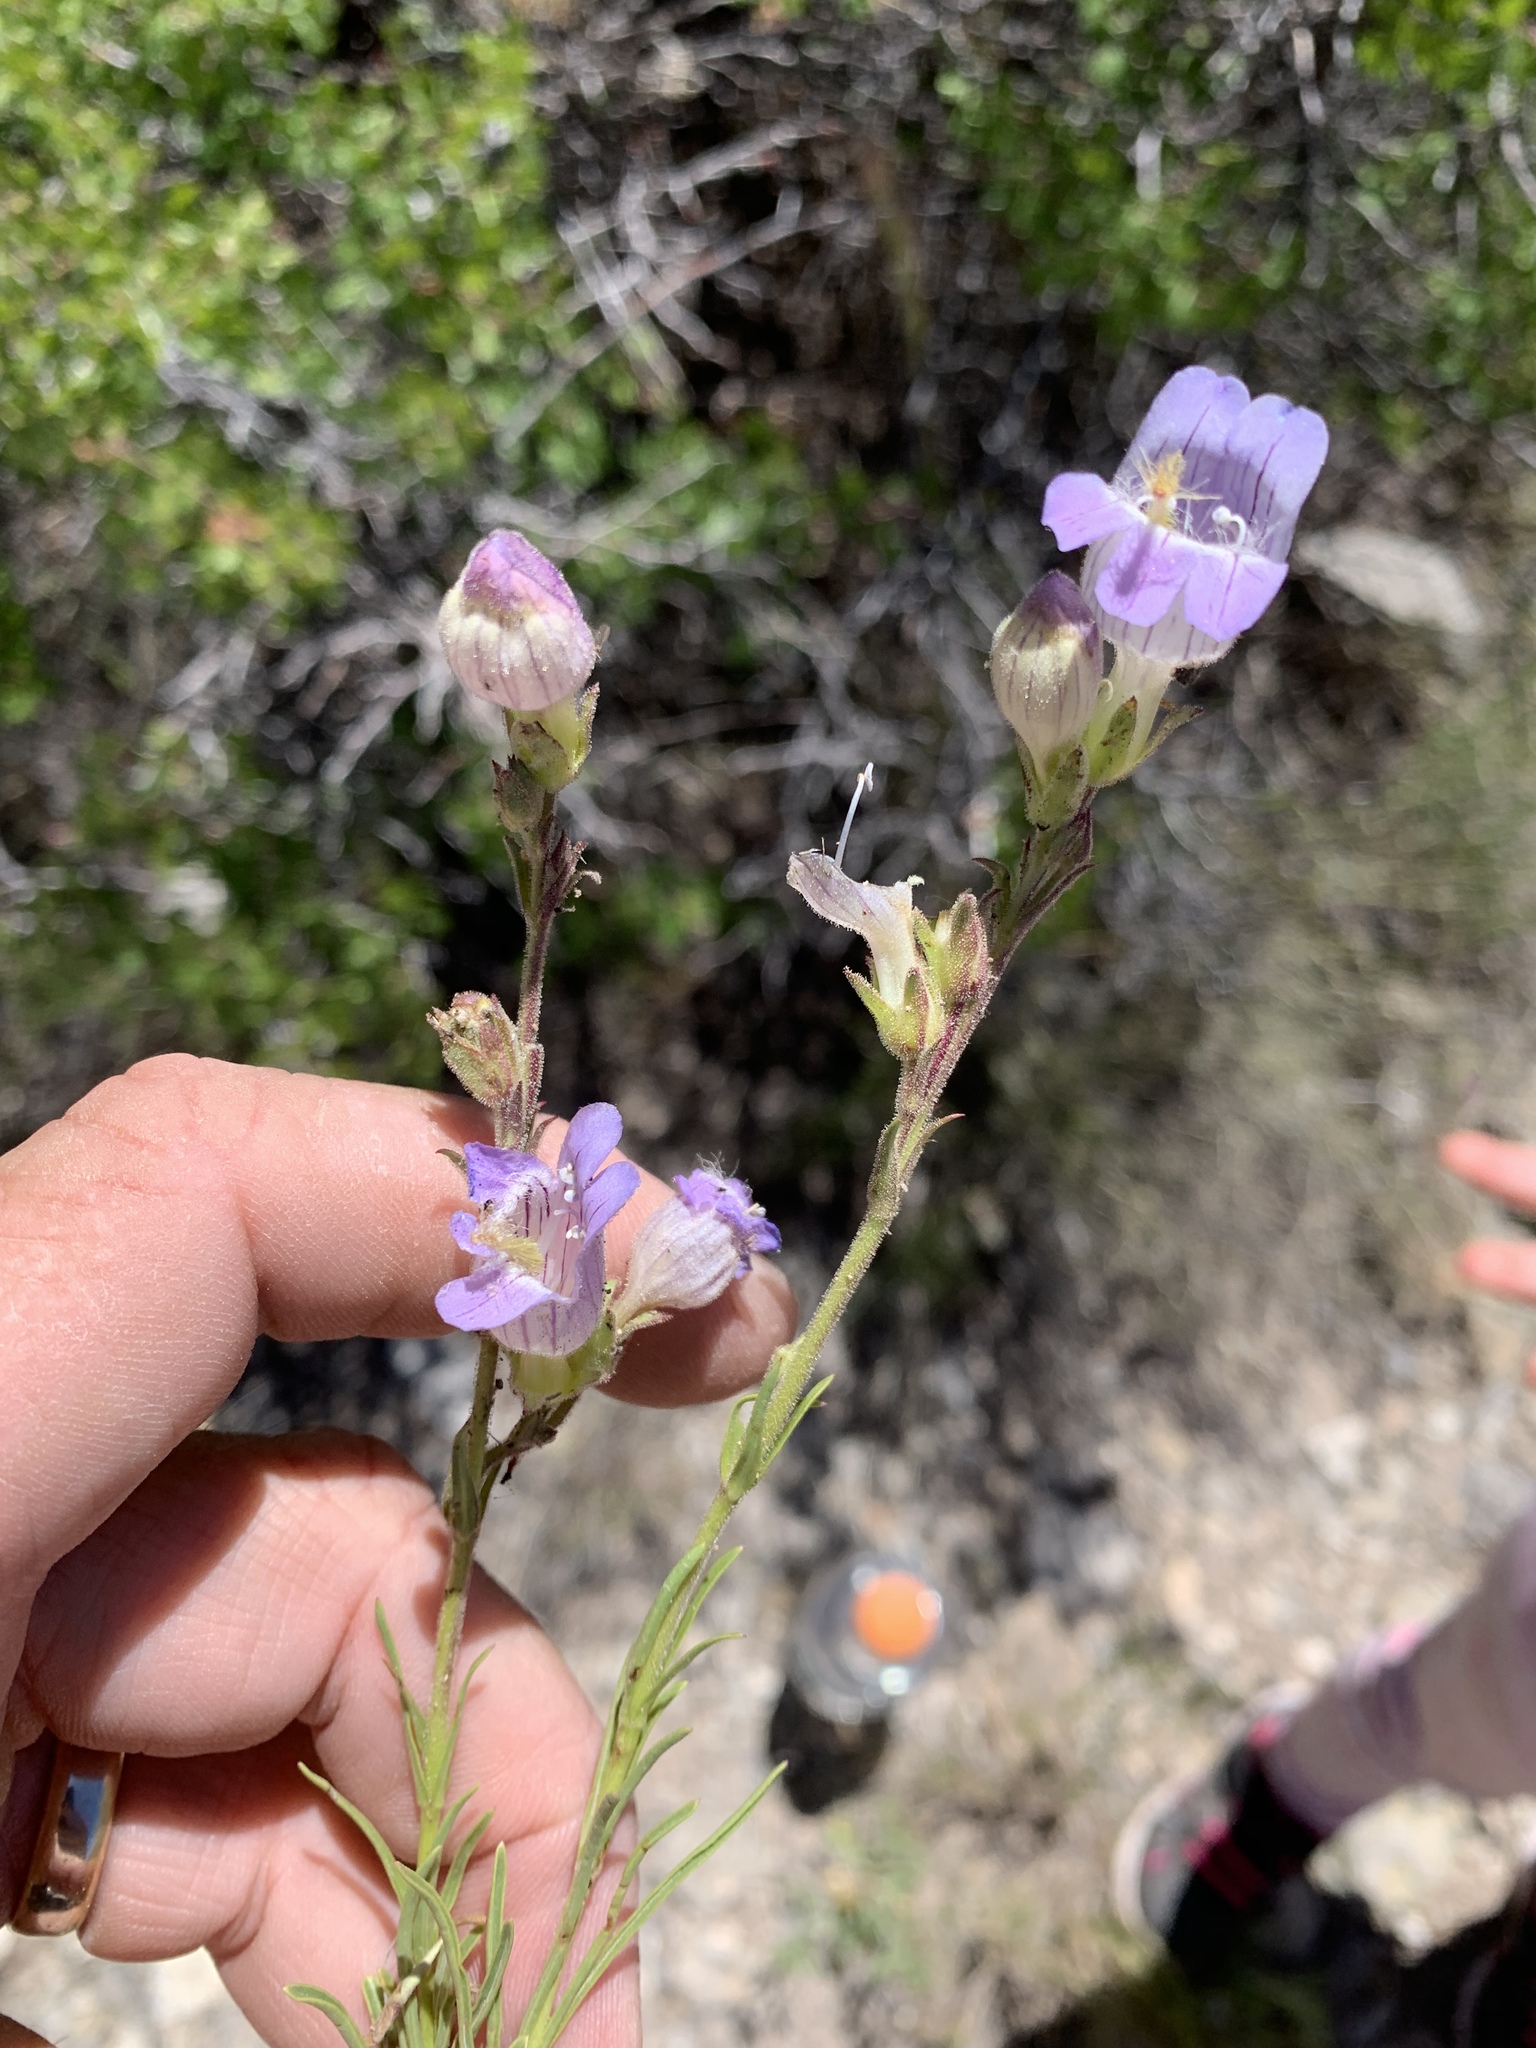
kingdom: Plantae
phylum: Tracheophyta
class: Magnoliopsida
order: Lamiales
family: Plantaginaceae
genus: Penstemon
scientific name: Penstemon jamesii
